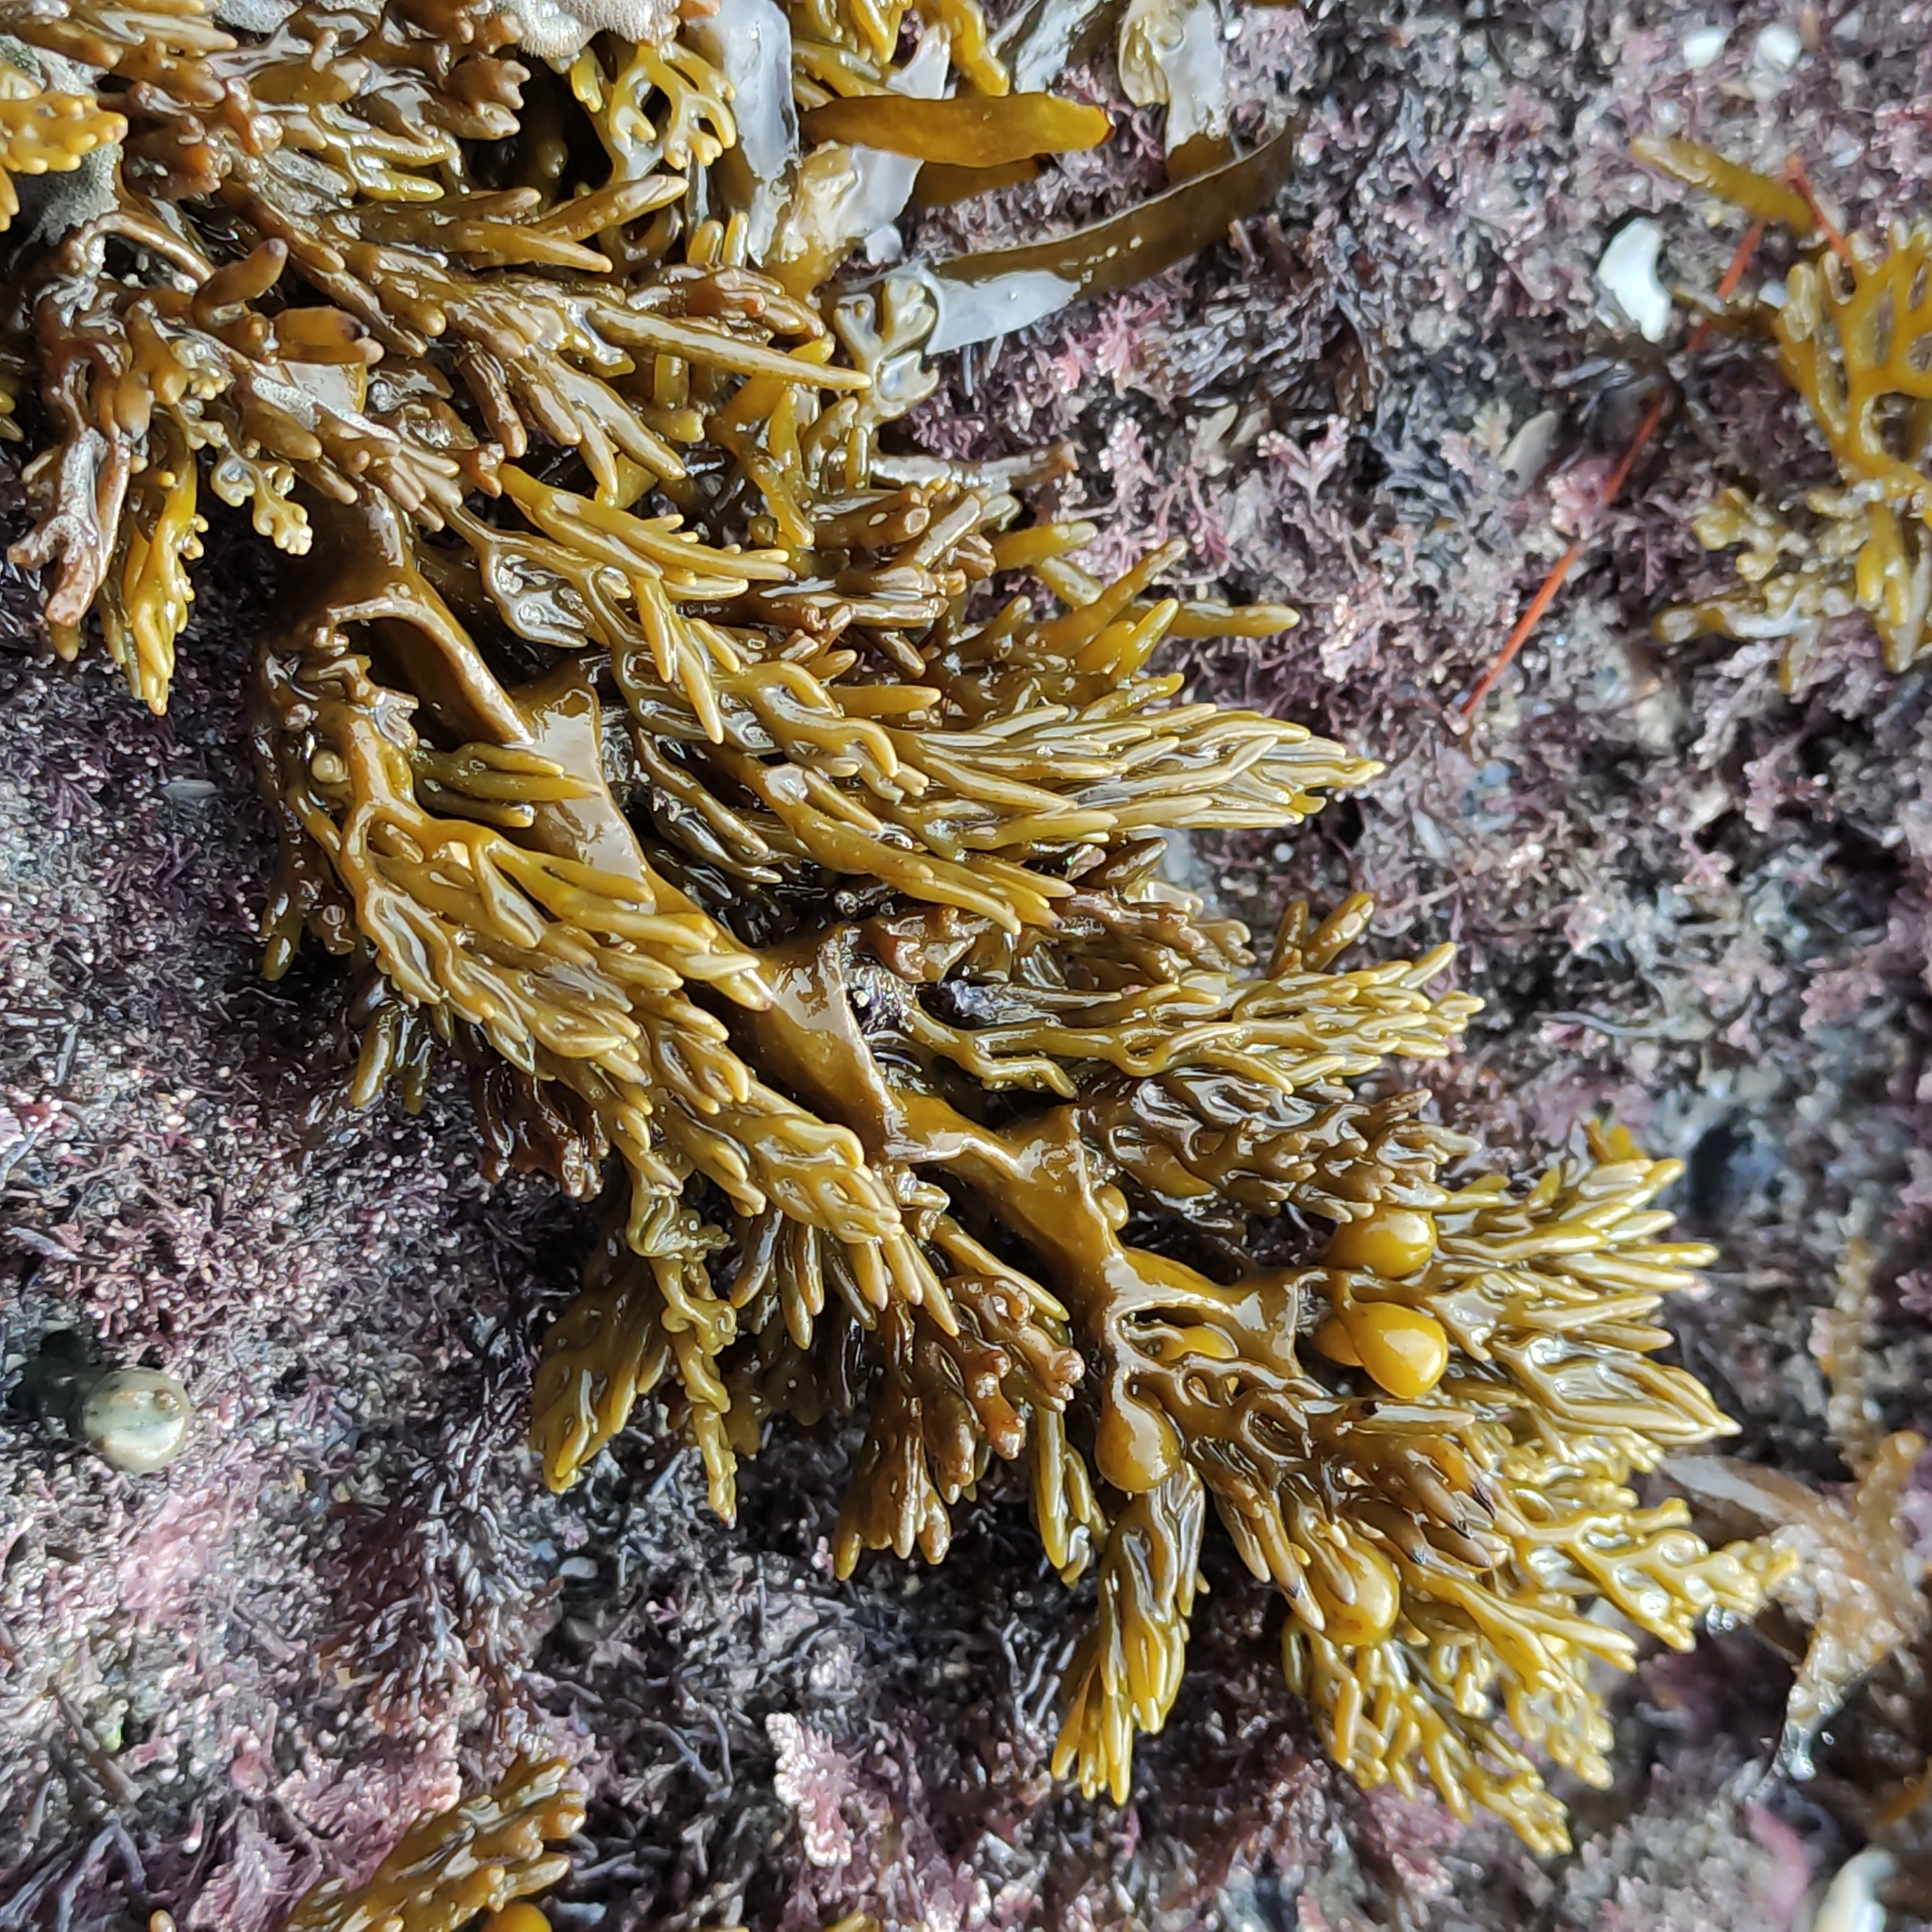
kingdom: Chromista
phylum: Ochrophyta
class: Phaeophyceae
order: Fucales
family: Sargassaceae
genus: Cystophora
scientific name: Cystophora scalaris
